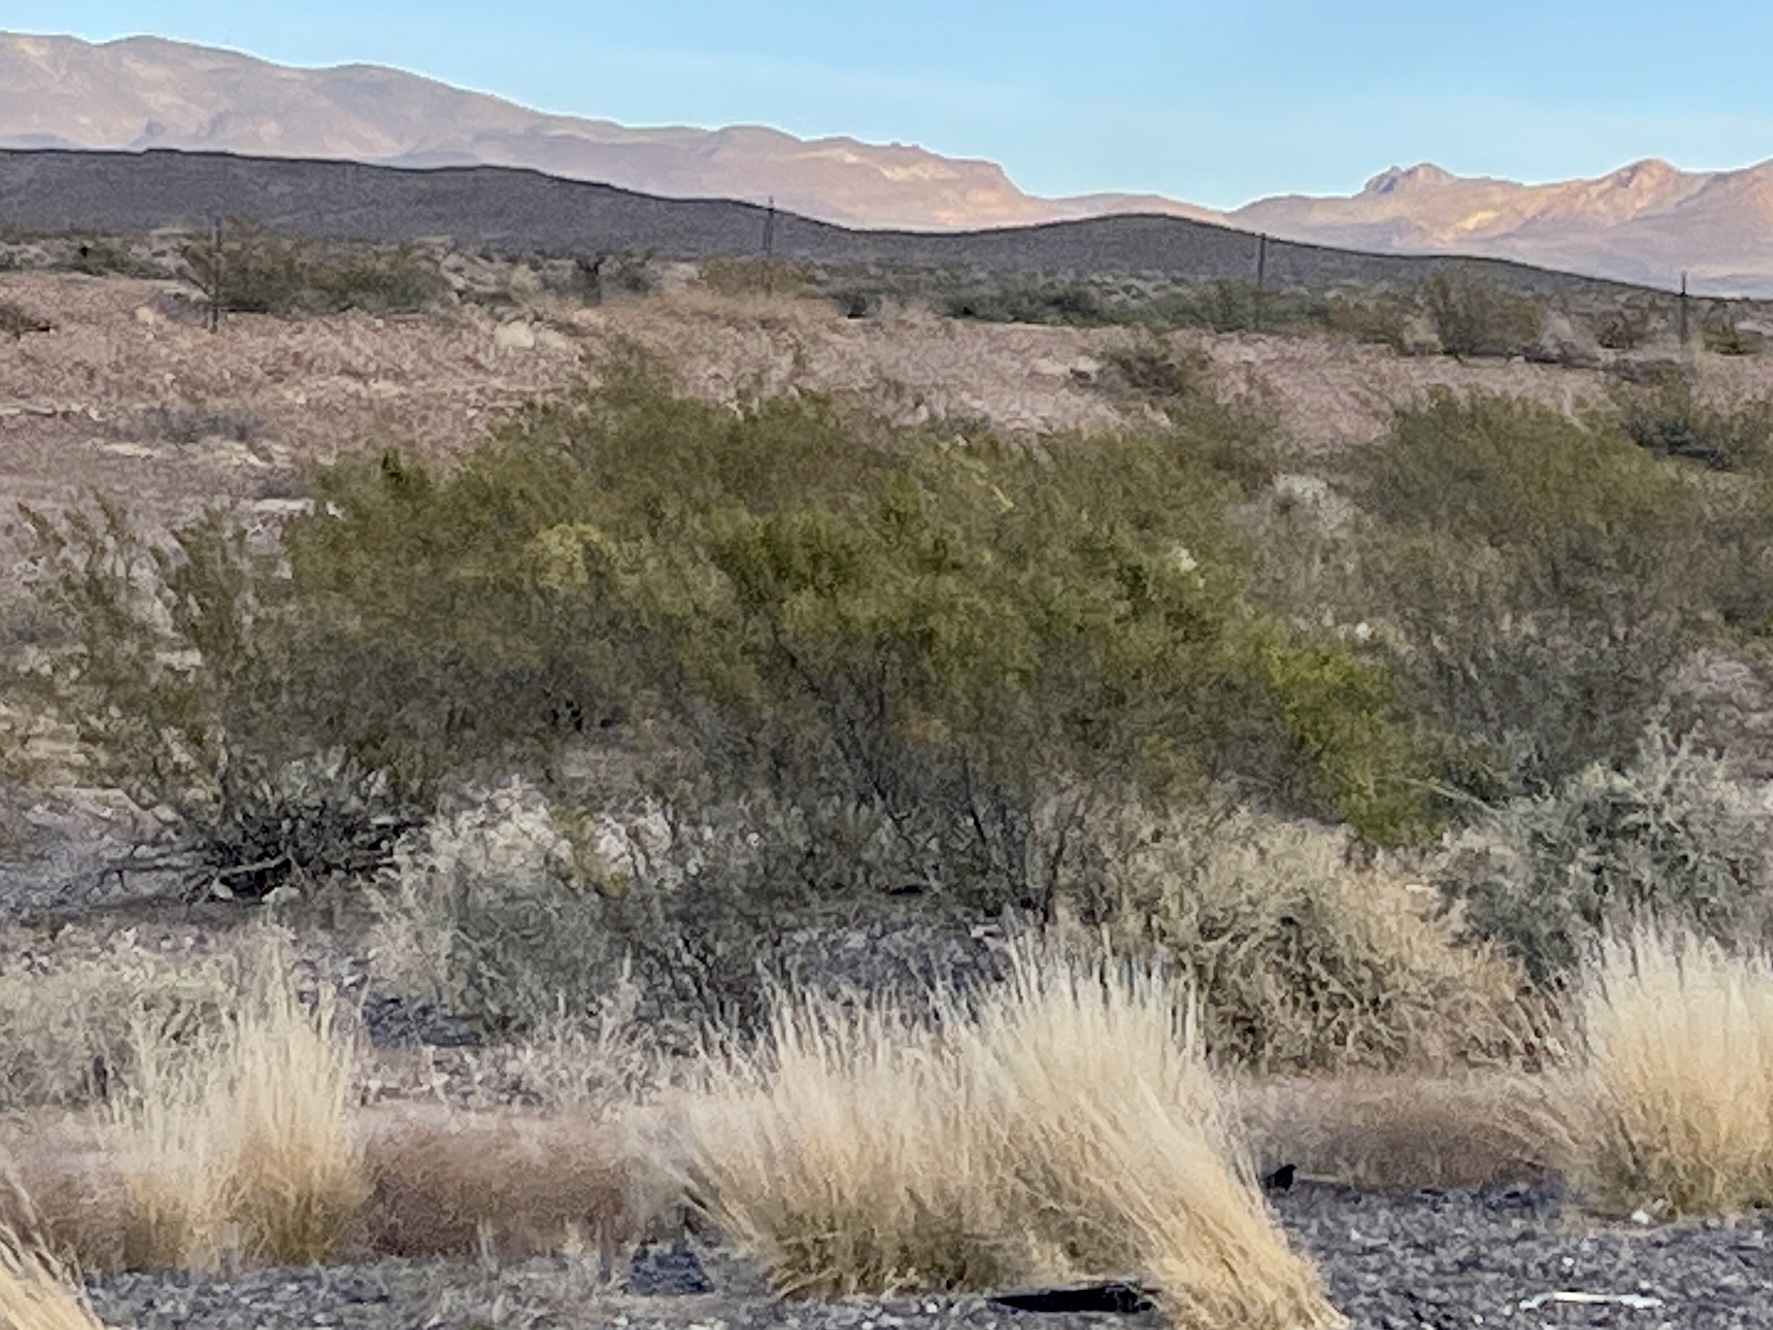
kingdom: Plantae
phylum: Tracheophyta
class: Magnoliopsida
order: Zygophyllales
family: Zygophyllaceae
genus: Larrea
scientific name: Larrea tridentata
